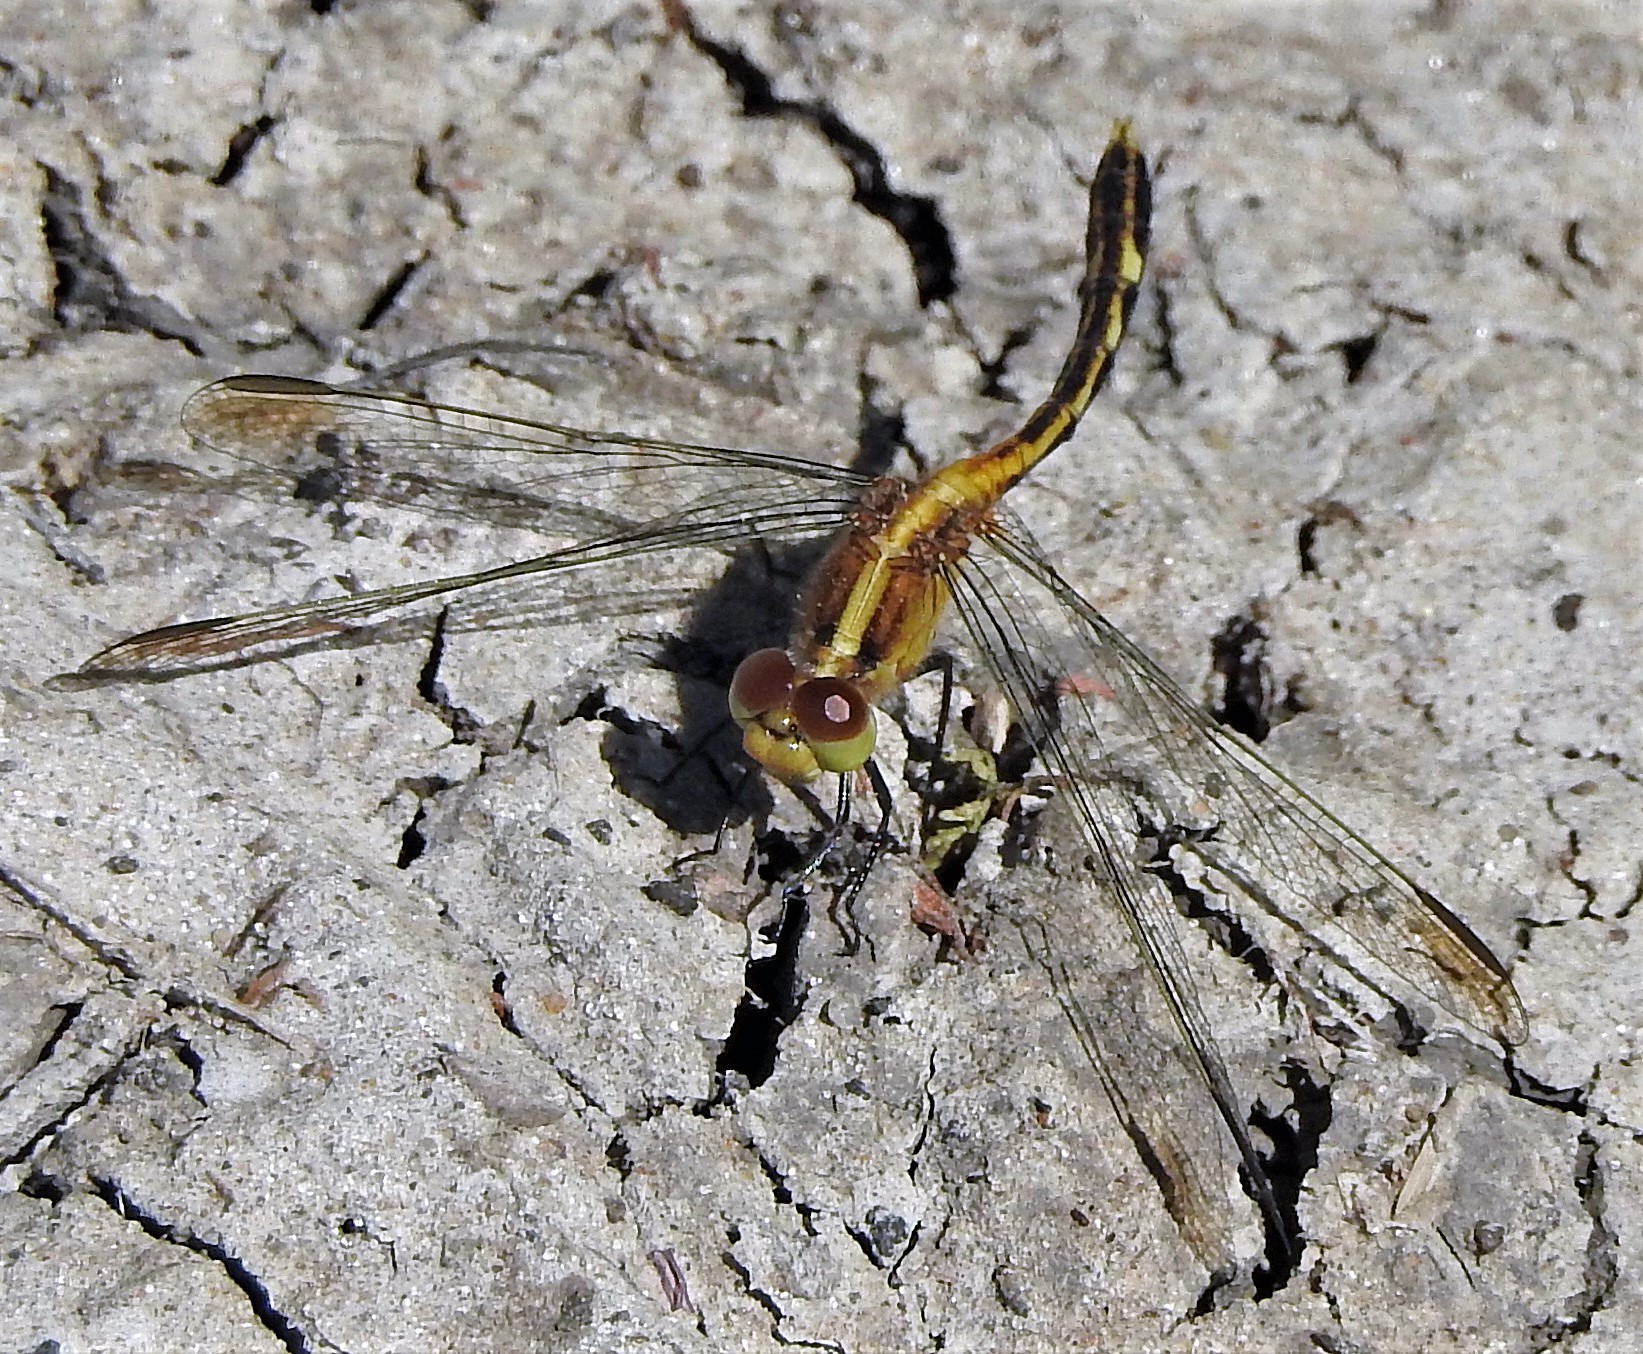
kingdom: Animalia
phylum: Arthropoda
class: Insecta
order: Odonata
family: Libellulidae
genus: Erythrodiplax
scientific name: Erythrodiplax nigricans
